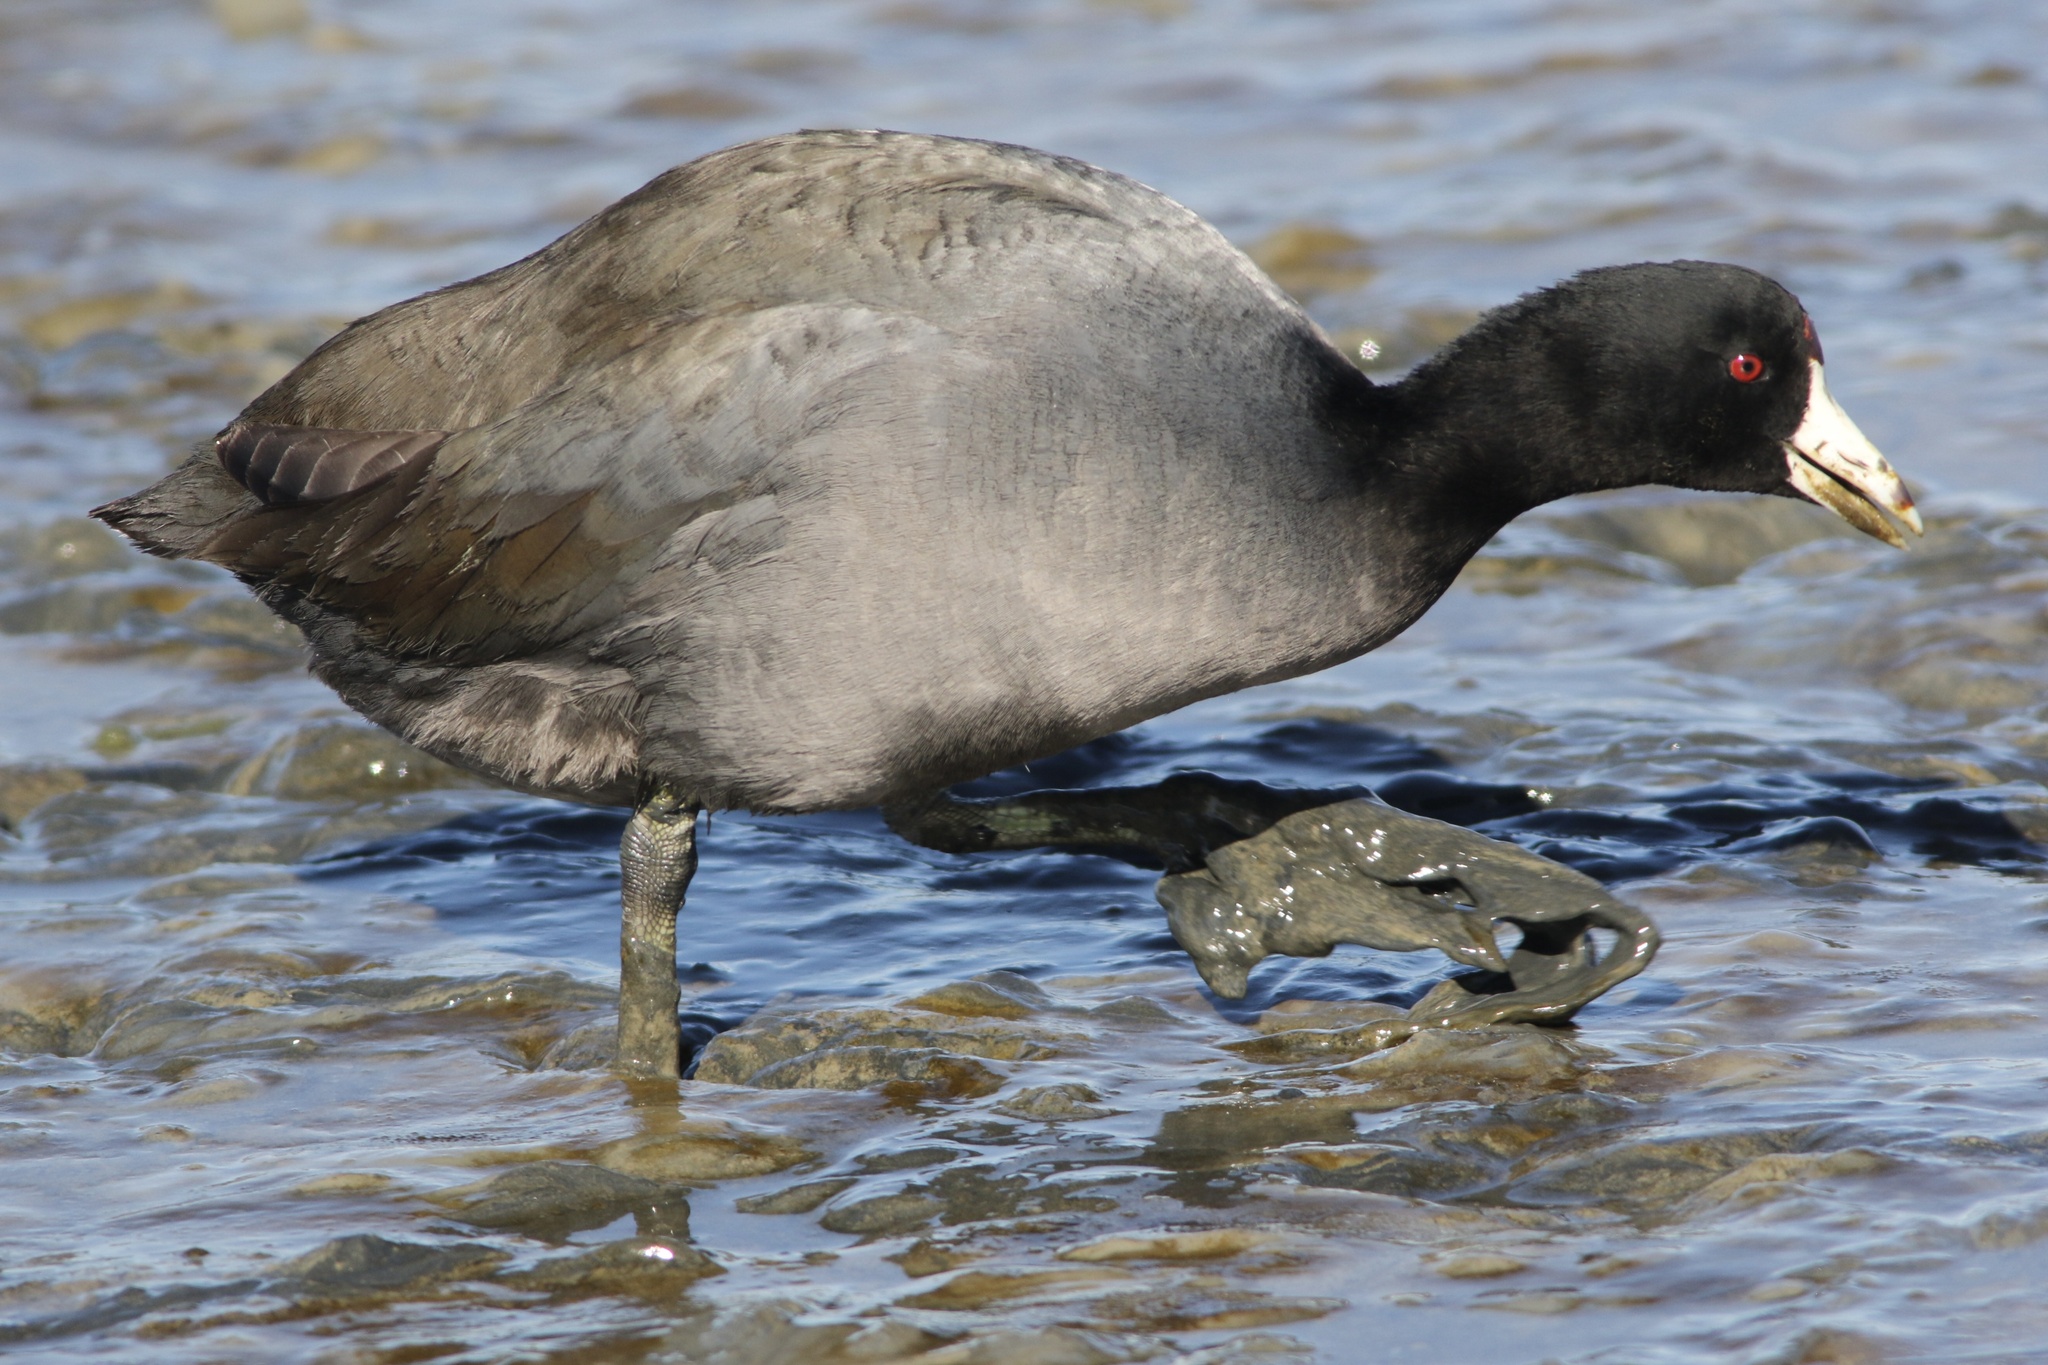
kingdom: Animalia
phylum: Chordata
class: Aves
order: Gruiformes
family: Rallidae
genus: Fulica
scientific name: Fulica americana
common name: American coot
